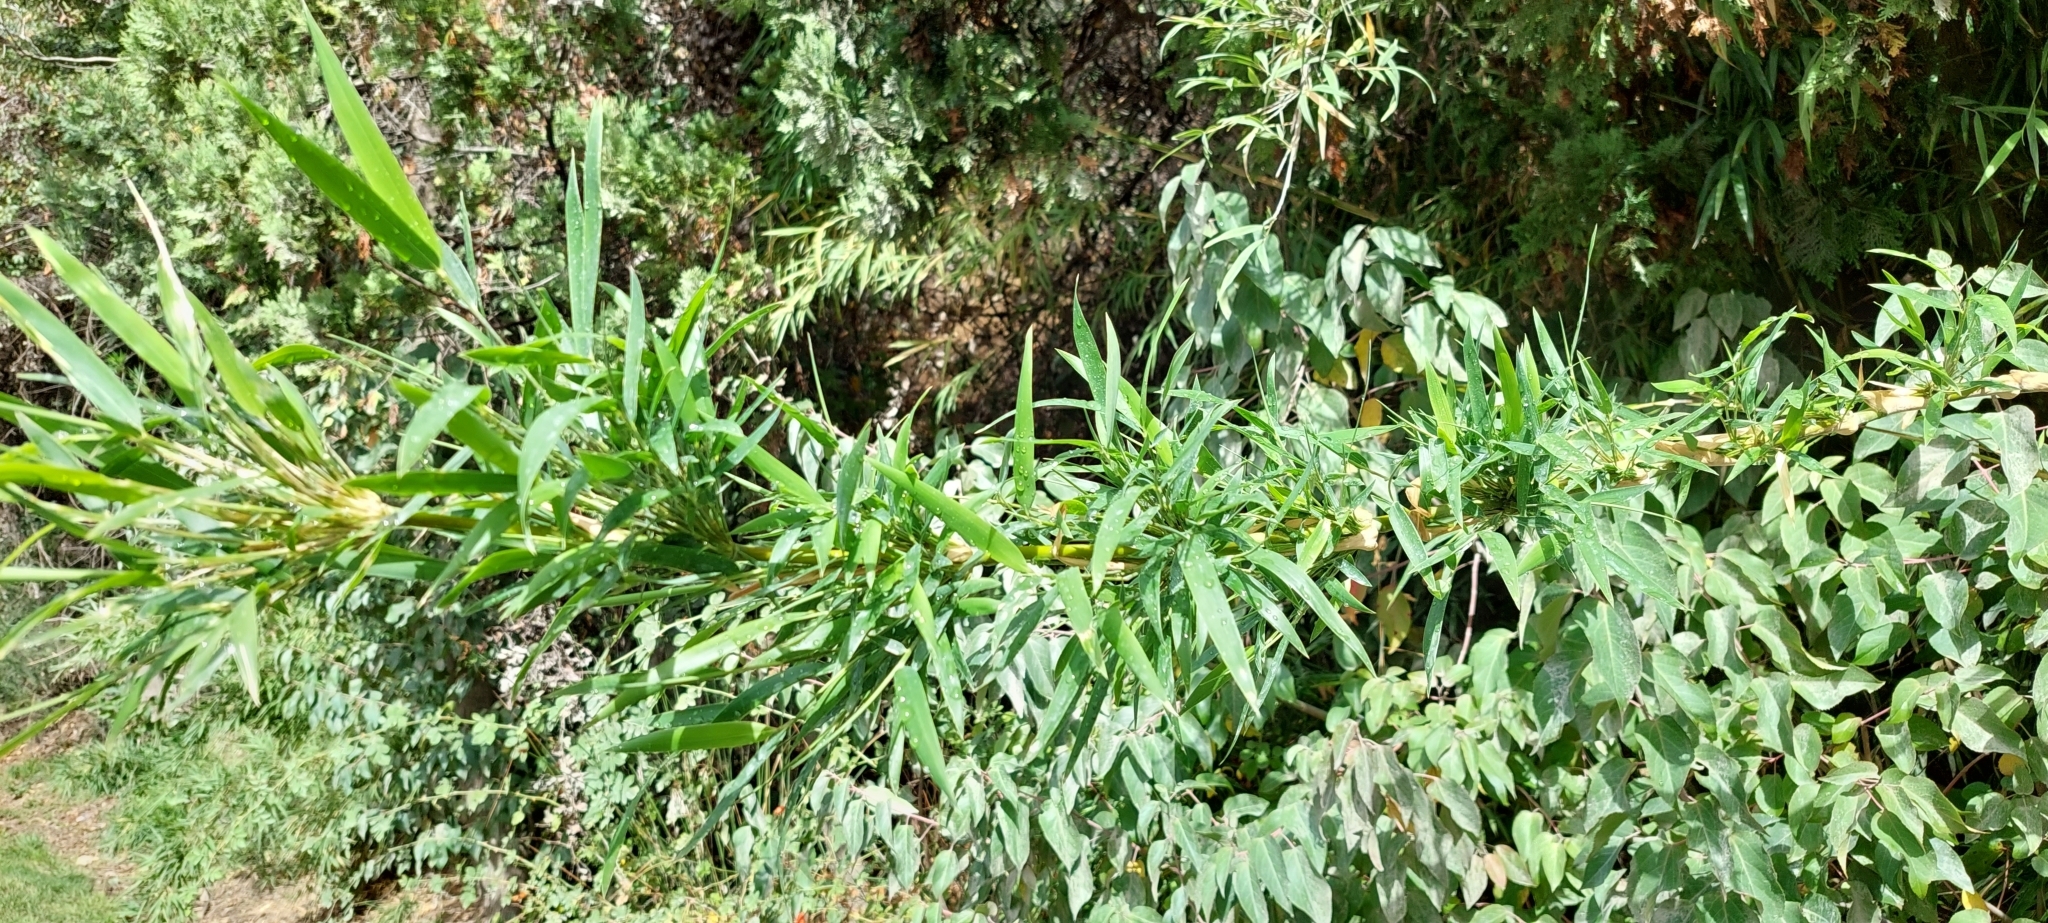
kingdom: Plantae
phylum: Tracheophyta
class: Liliopsida
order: Poales
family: Poaceae
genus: Chusquea
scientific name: Chusquea quila
